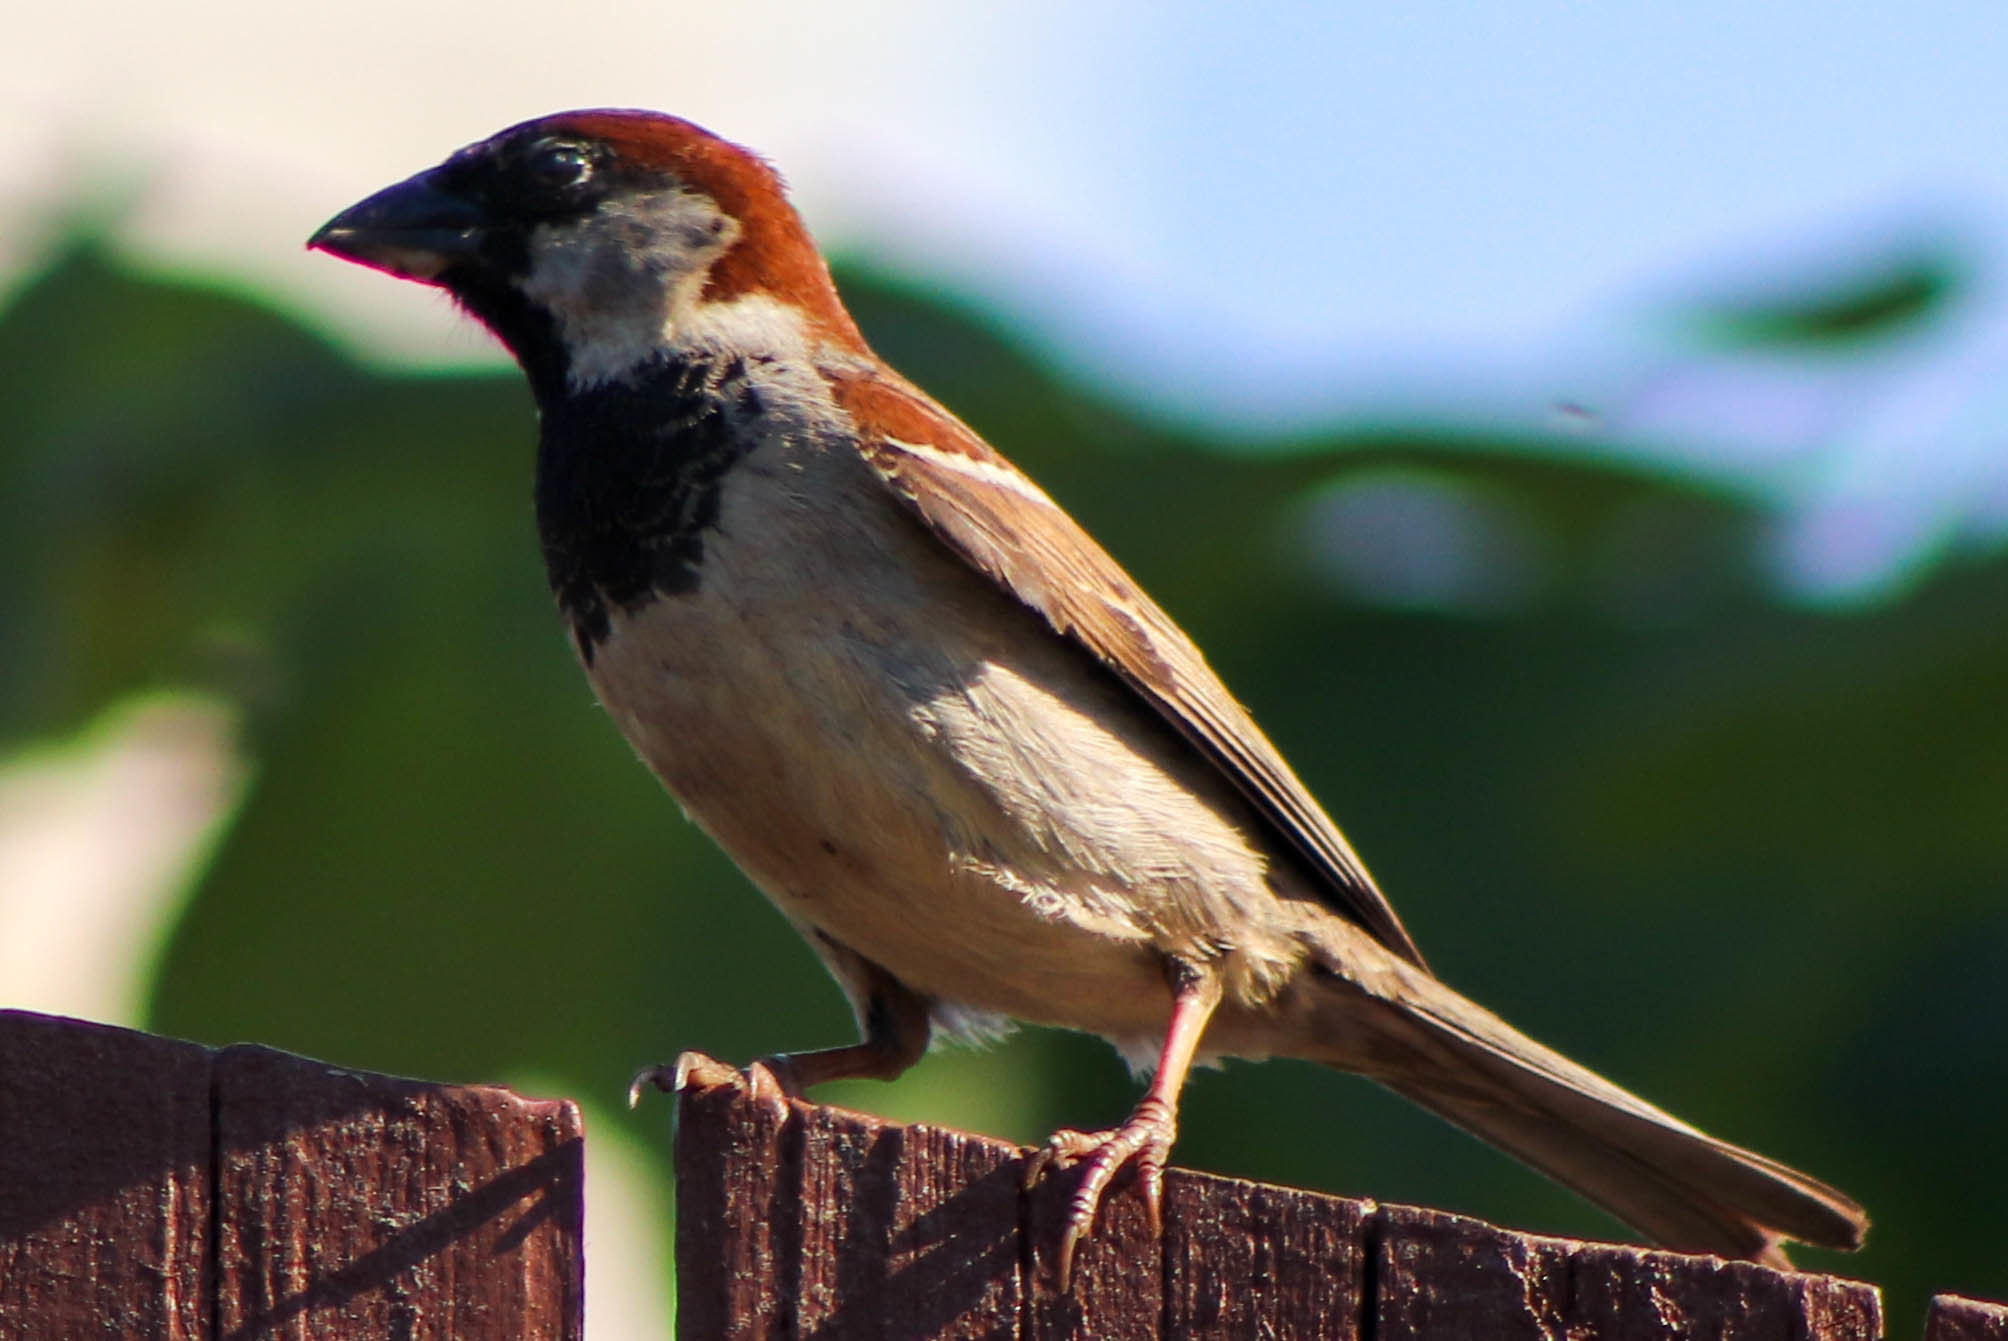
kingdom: Animalia
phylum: Chordata
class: Aves
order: Passeriformes
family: Passeridae
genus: Passer
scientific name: Passer domesticus
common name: House sparrow
